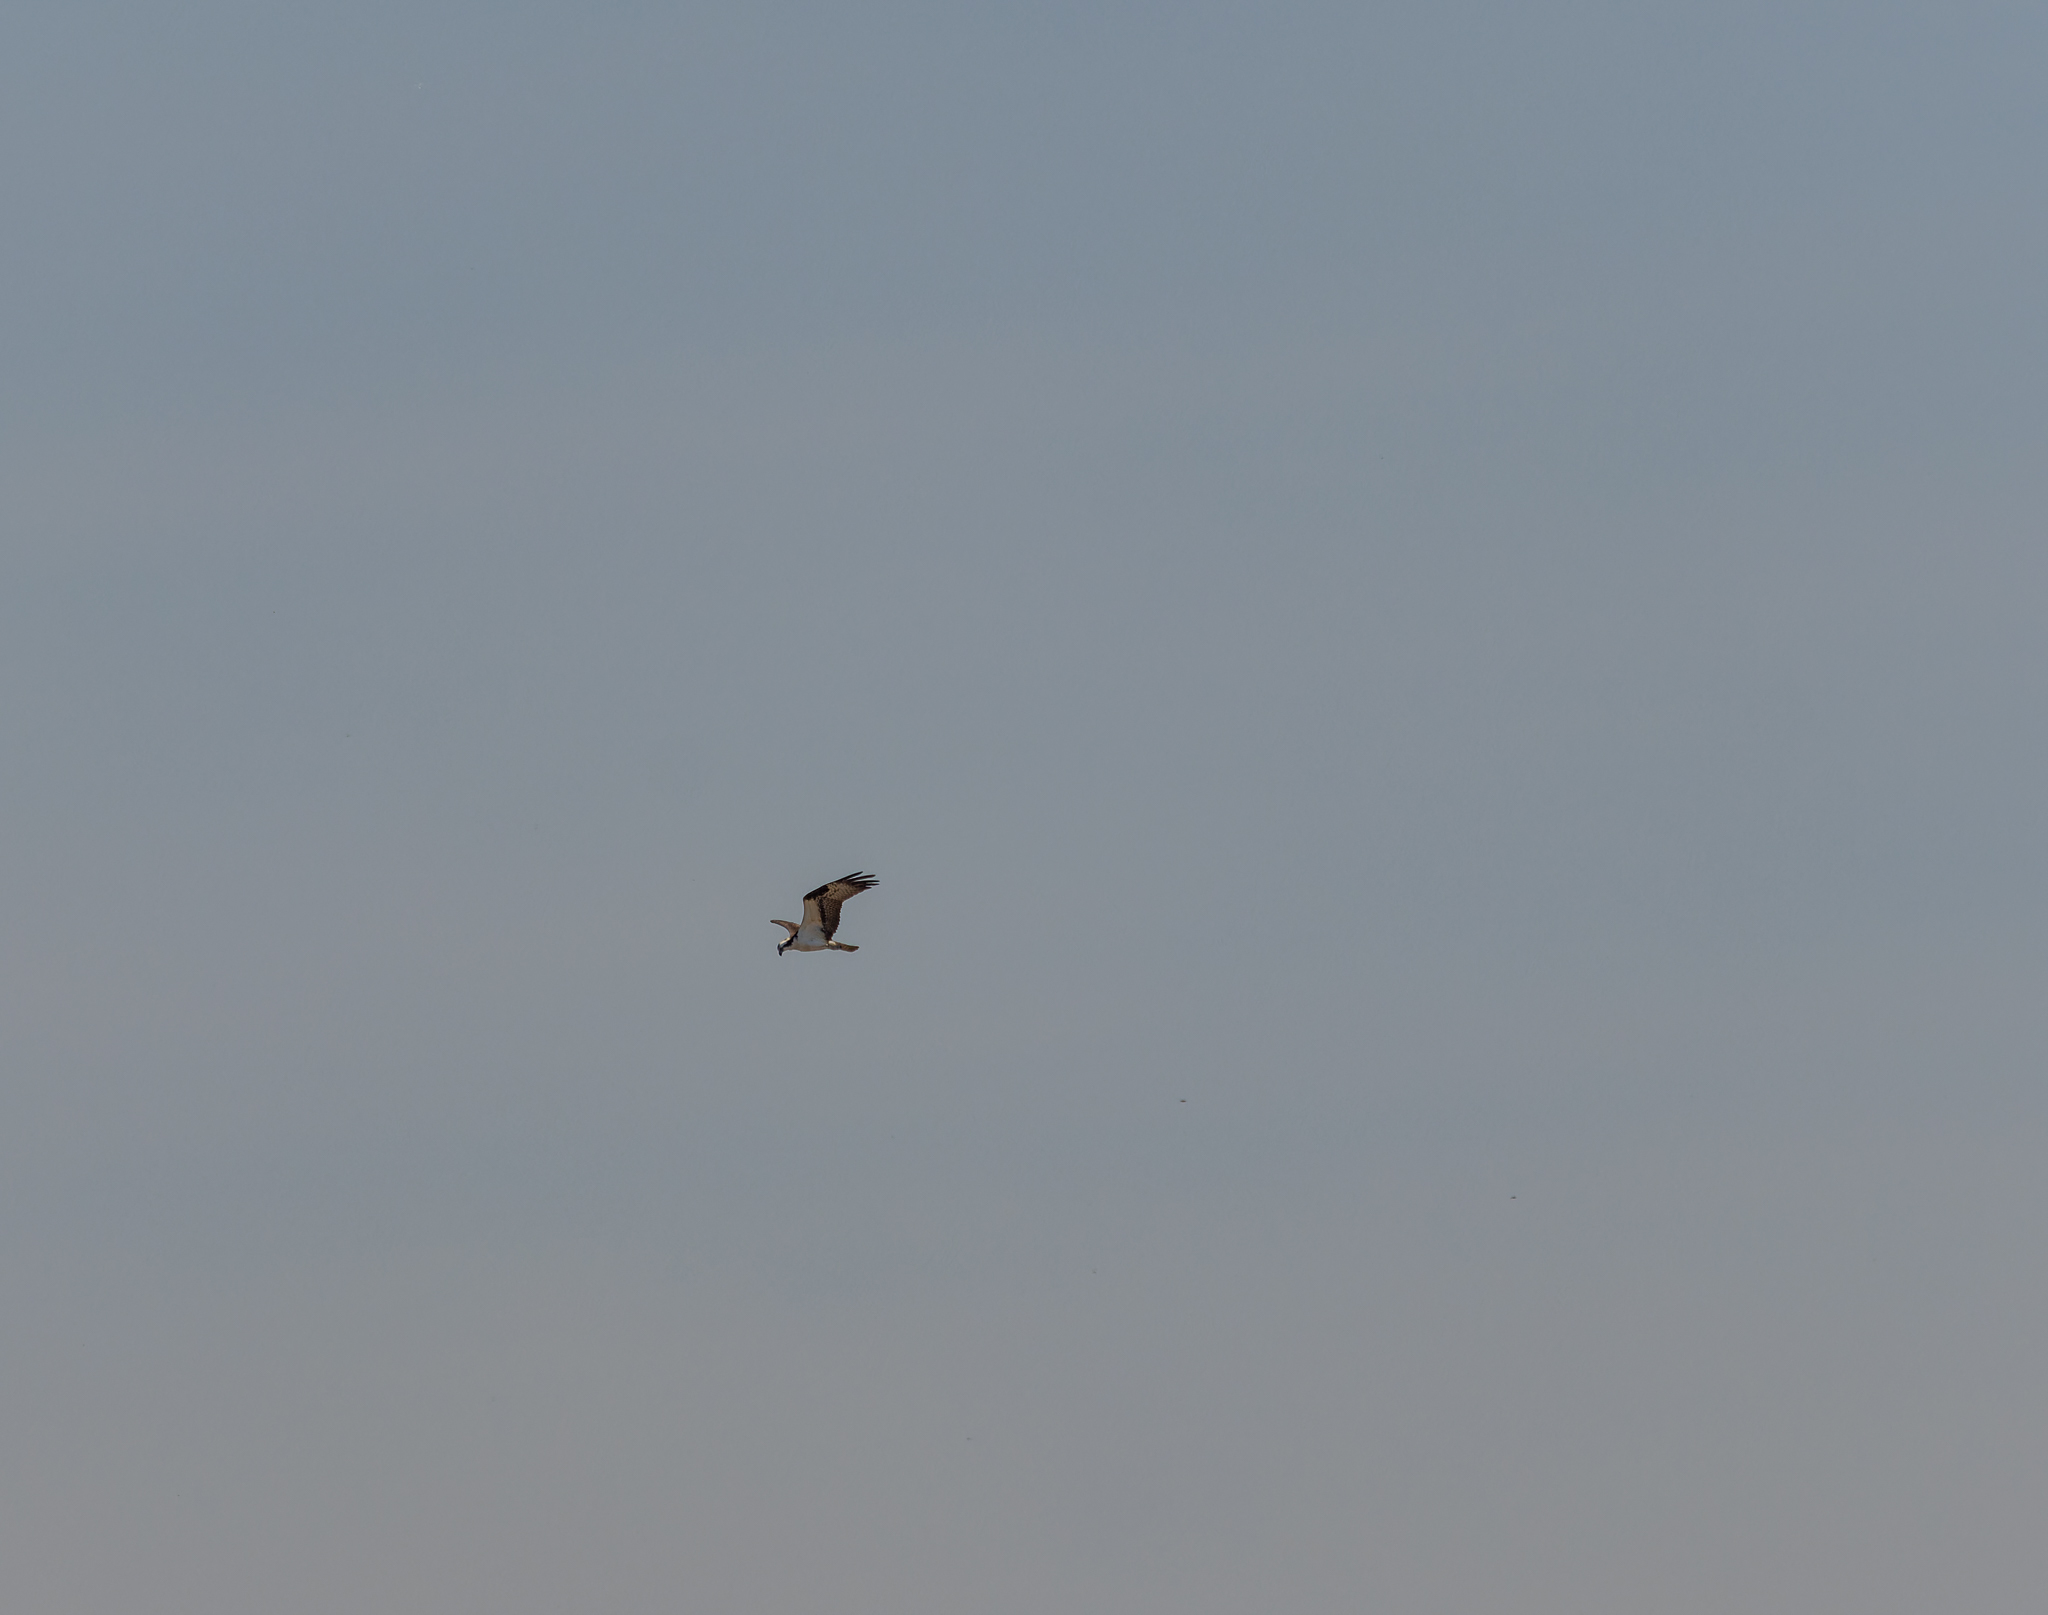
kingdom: Animalia
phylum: Chordata
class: Aves
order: Accipitriformes
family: Pandionidae
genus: Pandion
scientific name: Pandion haliaetus
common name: Osprey
